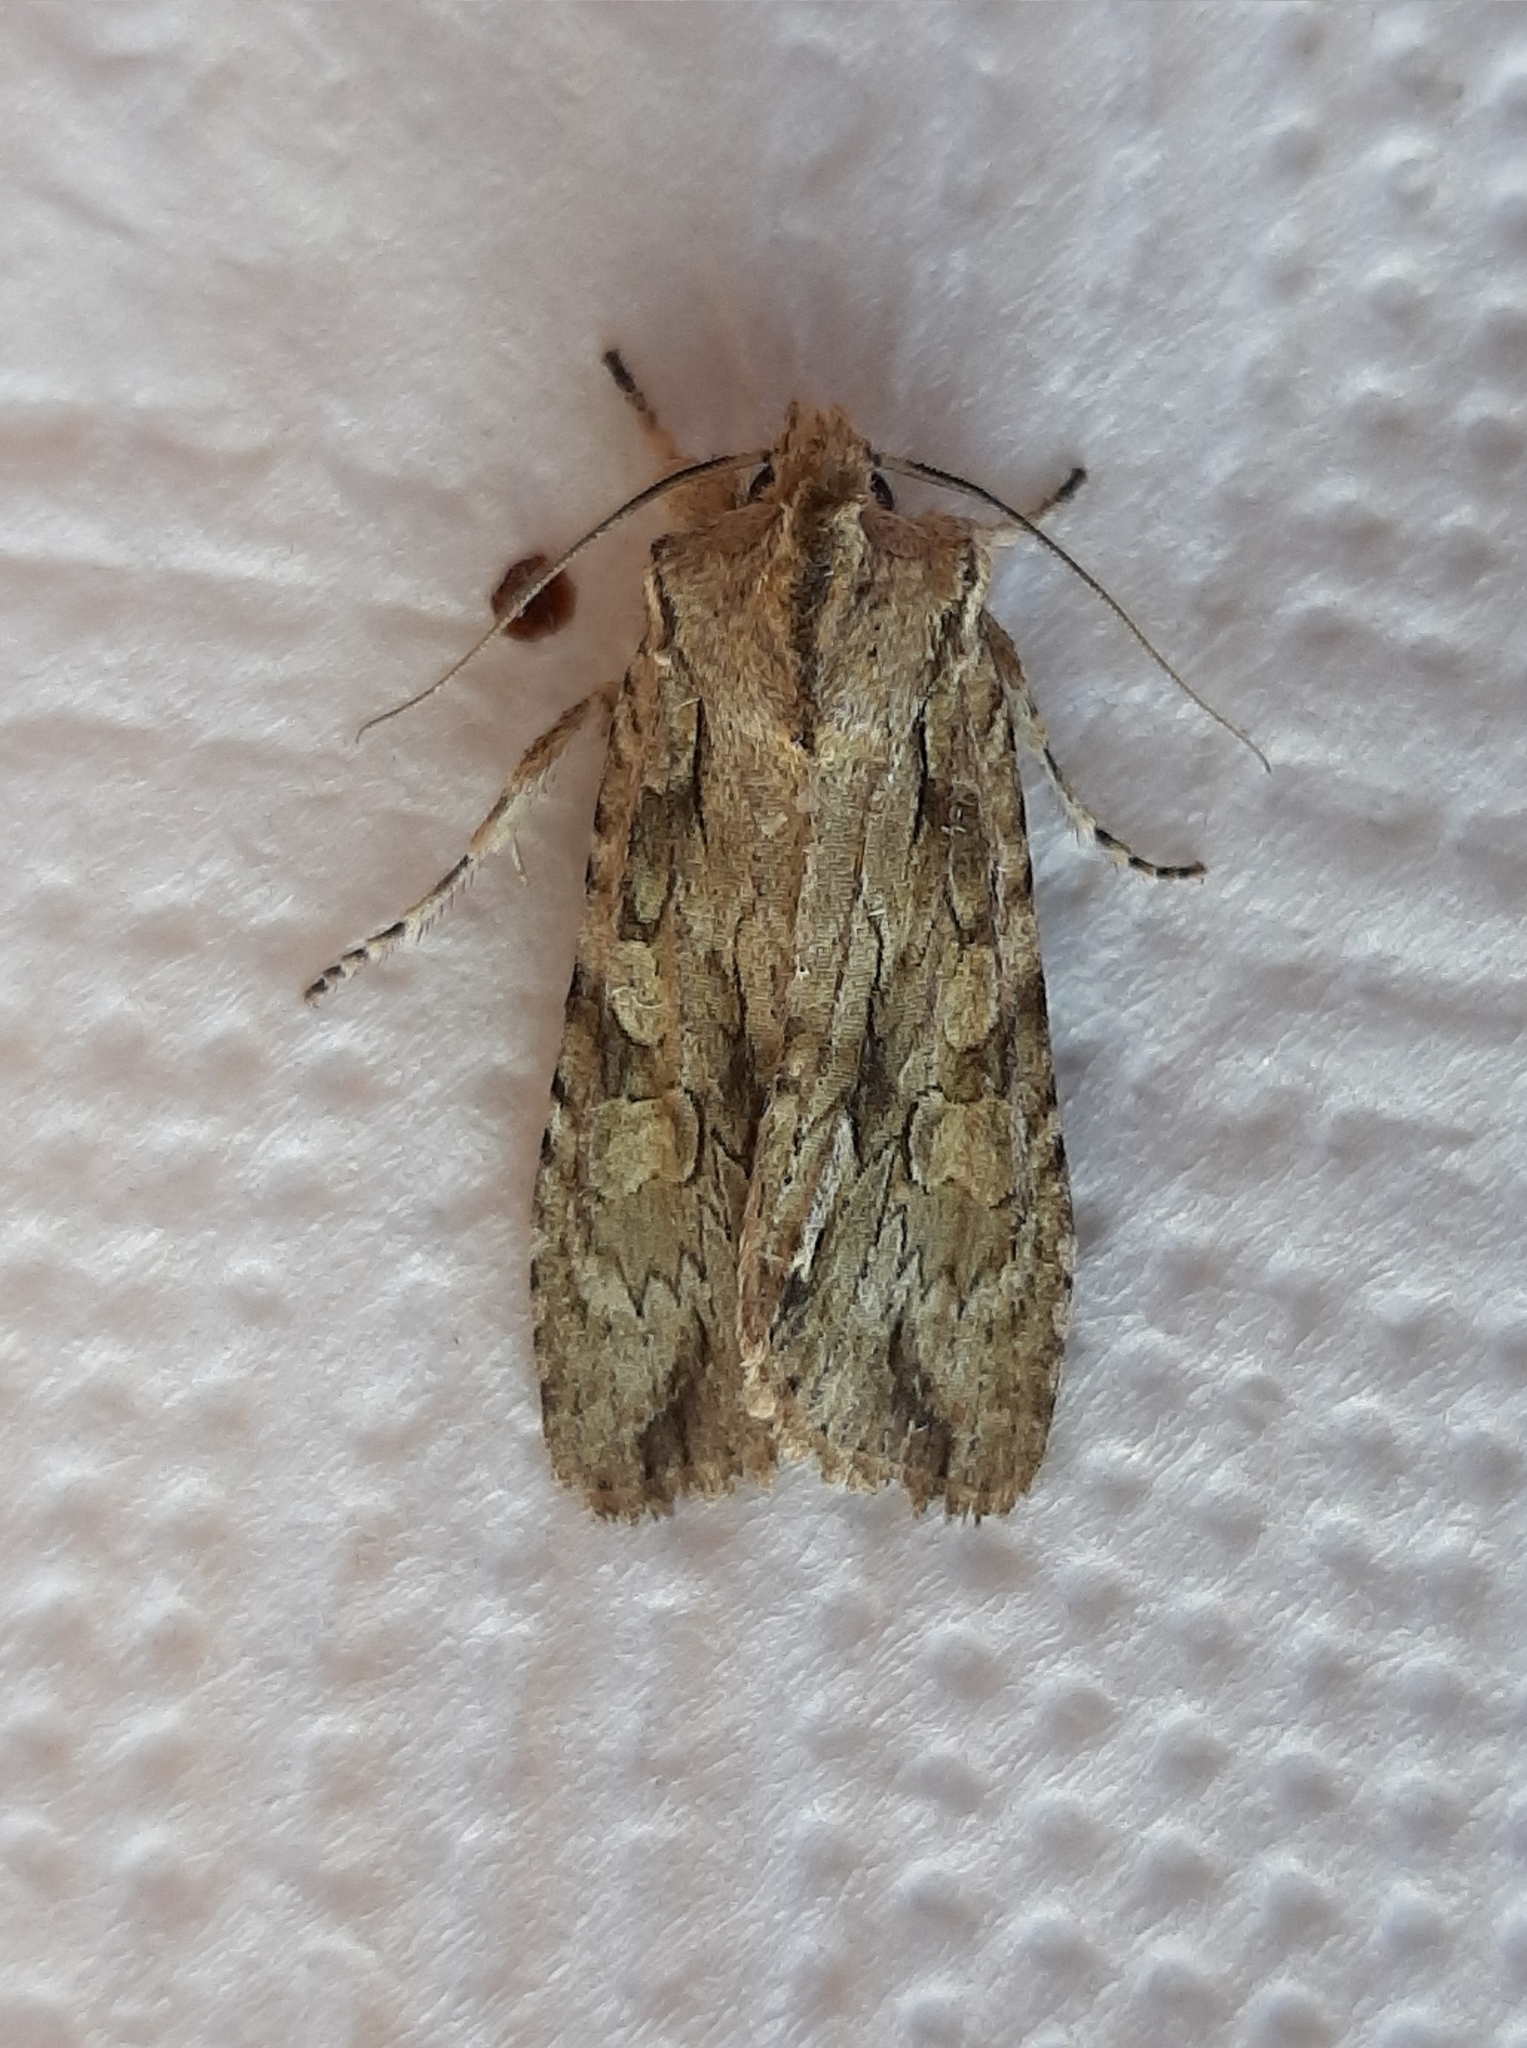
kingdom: Animalia
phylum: Arthropoda
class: Insecta
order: Lepidoptera
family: Noctuidae
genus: Lithophane
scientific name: Lithophane disposita
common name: Dashed gray pinion moth
